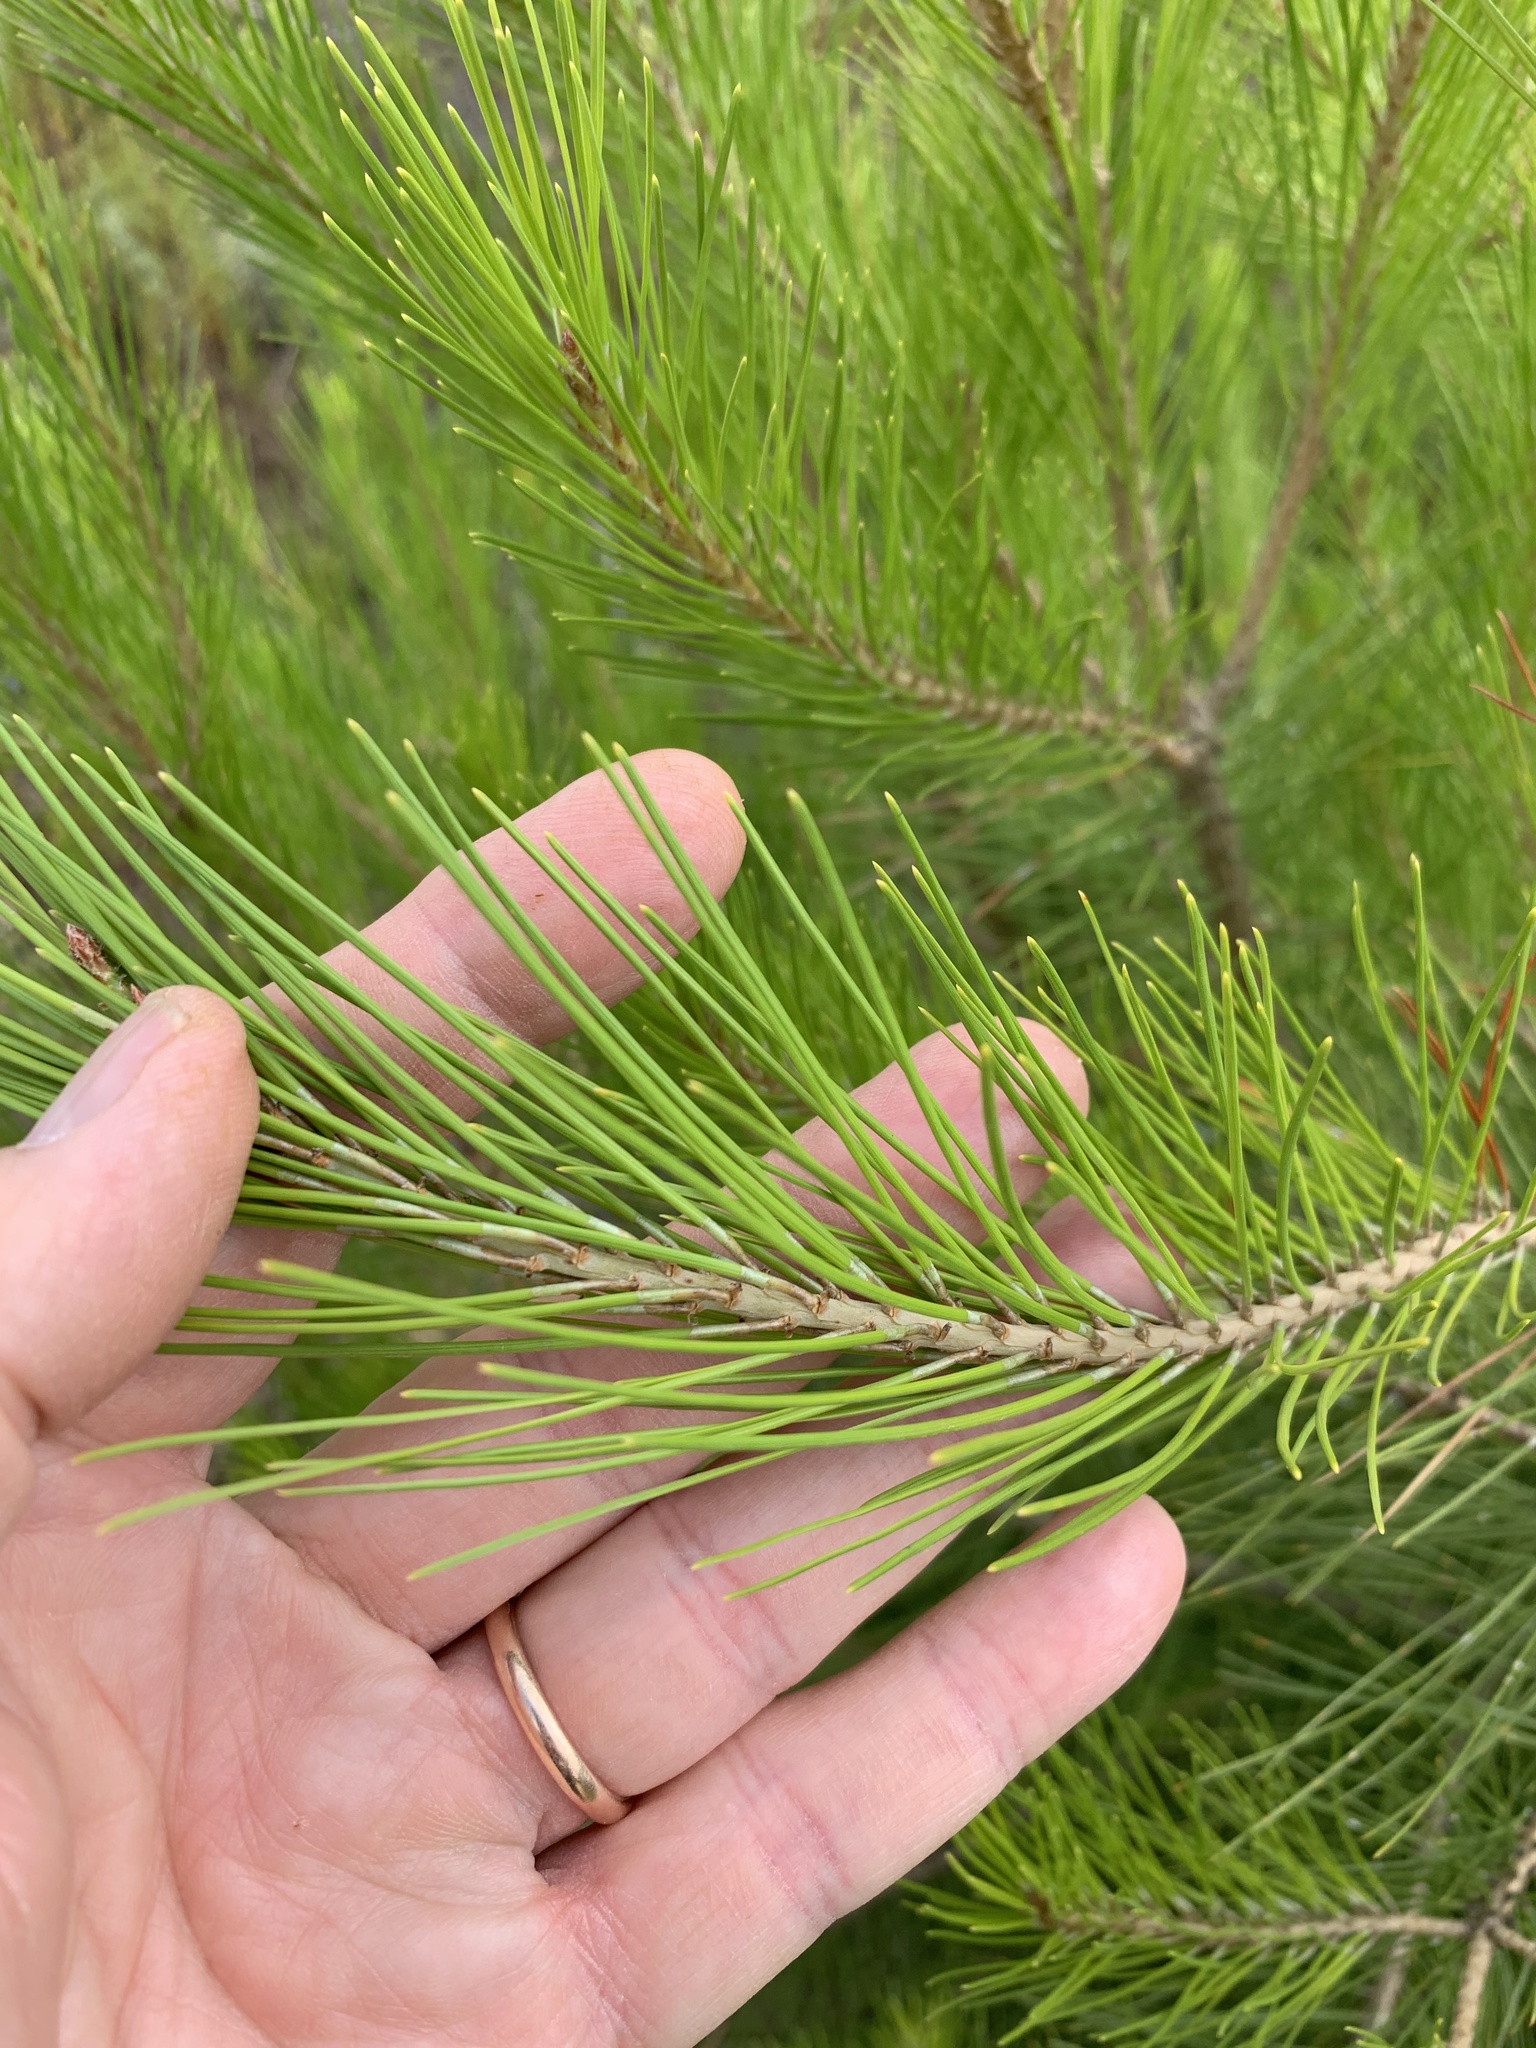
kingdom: Plantae
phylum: Tracheophyta
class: Pinopsida
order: Pinales
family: Pinaceae
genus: Pinus
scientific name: Pinus halepensis
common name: Aleppo pine
